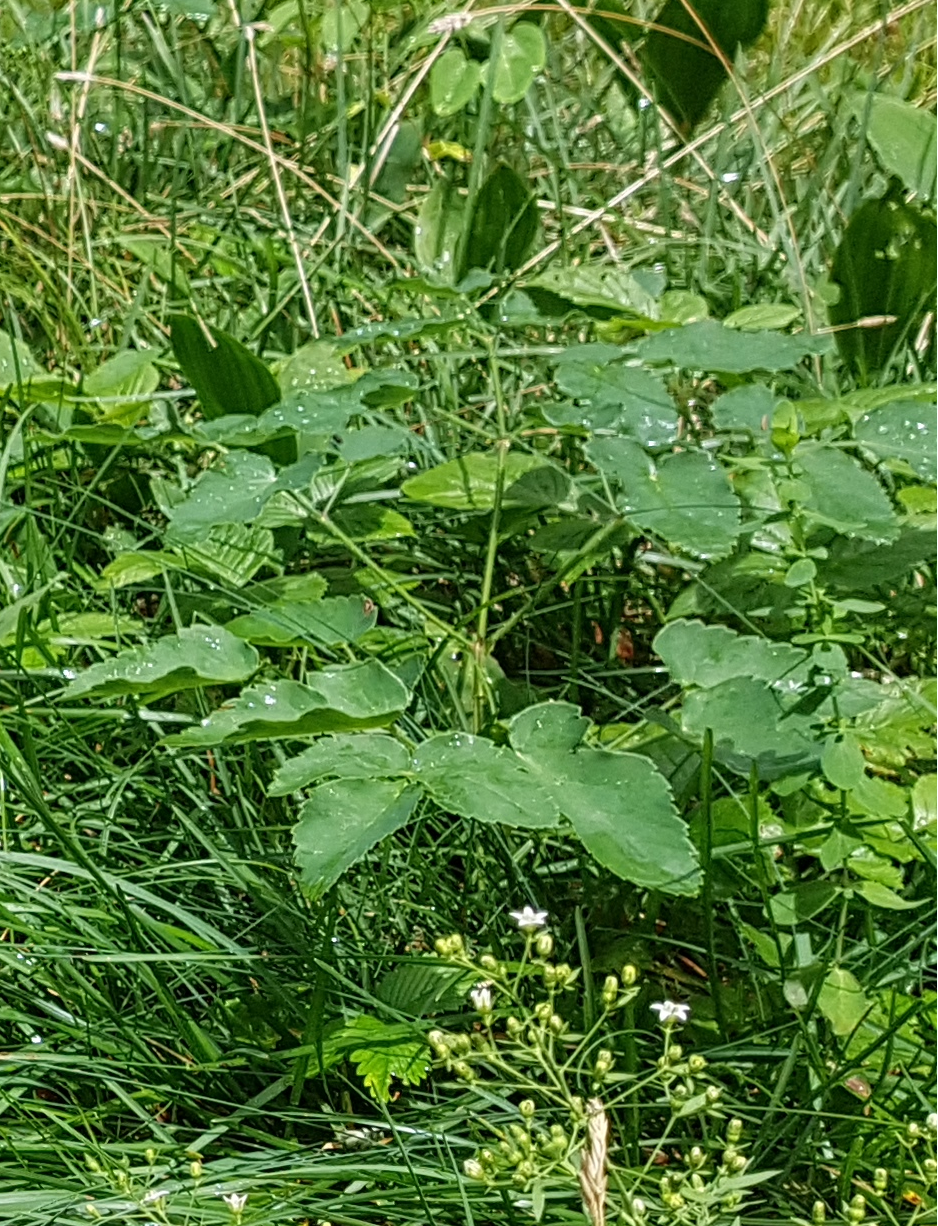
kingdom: Plantae
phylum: Tracheophyta
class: Magnoliopsida
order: Apiales
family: Apiaceae
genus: Laserpitium
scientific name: Laserpitium latifolium
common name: Broadleaf sermountain
